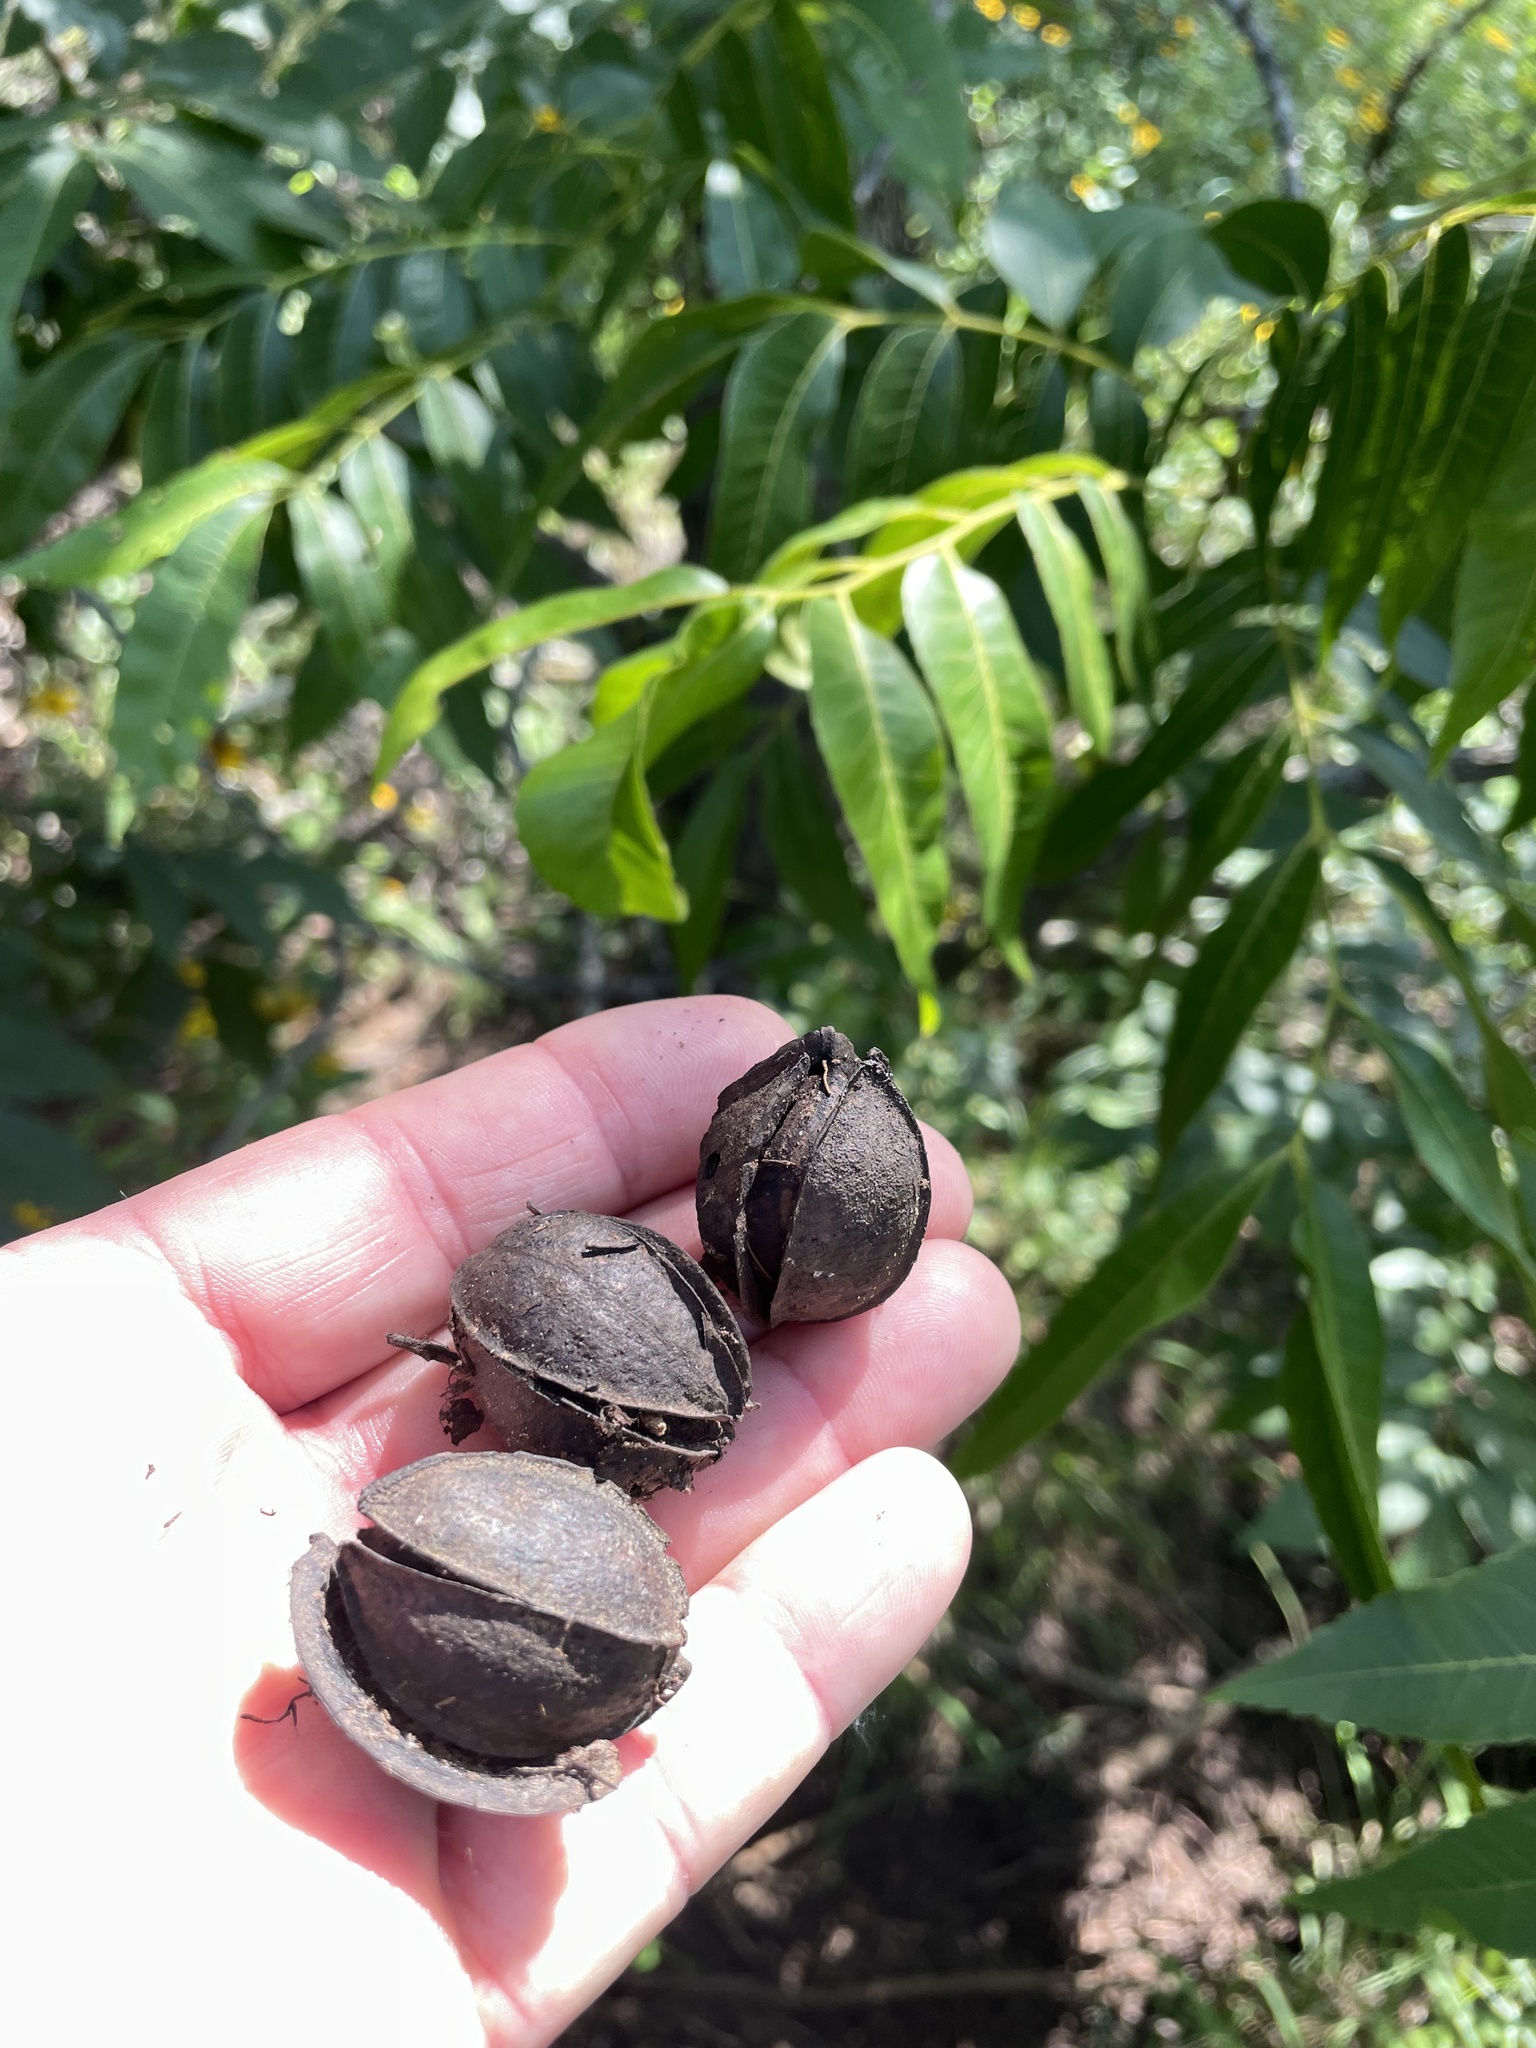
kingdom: Plantae
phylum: Tracheophyta
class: Magnoliopsida
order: Fagales
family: Juglandaceae
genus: Carya
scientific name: Carya illinoinensis
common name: Pecan
